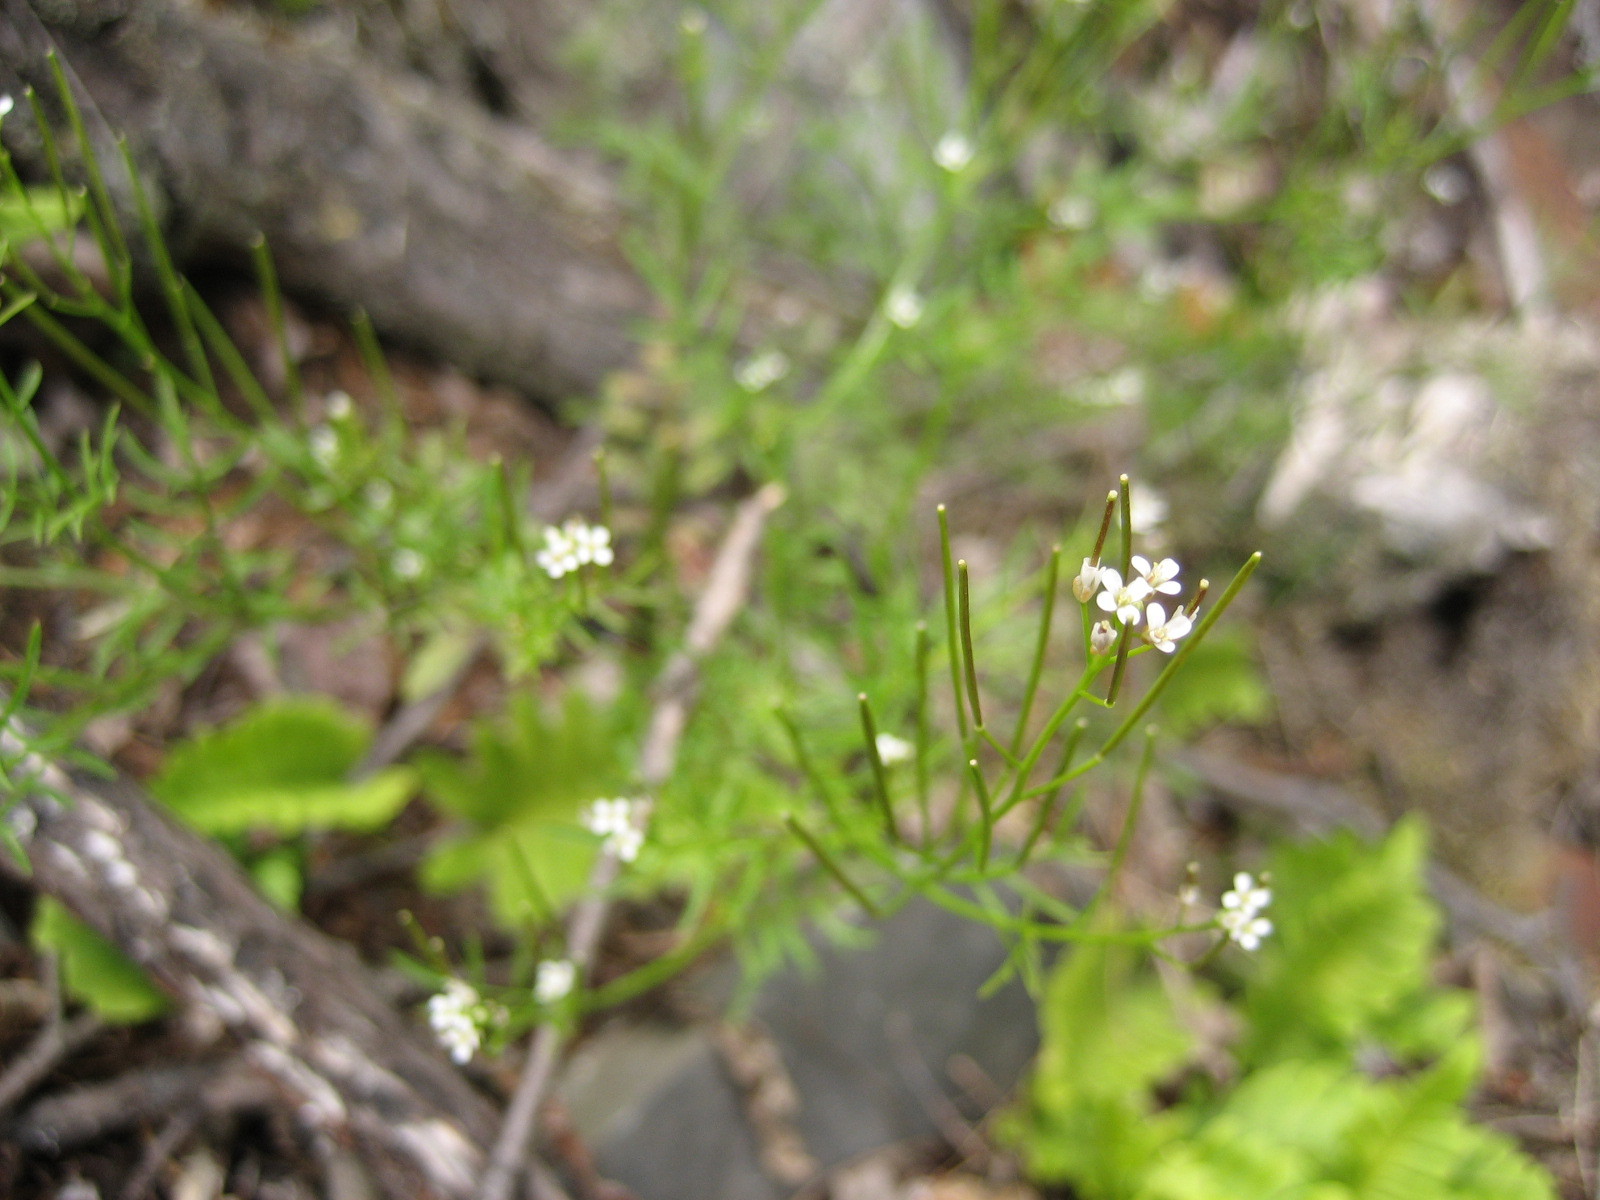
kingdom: Plantae
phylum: Tracheophyta
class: Magnoliopsida
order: Brassicales
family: Brassicaceae
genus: Cardamine
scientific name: Cardamine parviflora
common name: Sand bittercress
